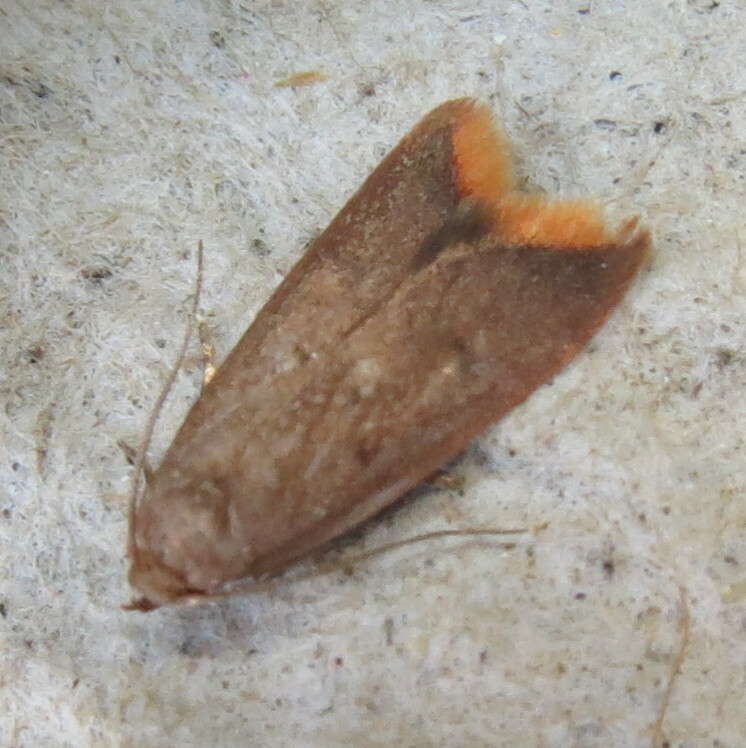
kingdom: Animalia
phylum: Arthropoda
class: Insecta
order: Lepidoptera
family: Oecophoridae
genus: Tachystola
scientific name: Tachystola acroxantha
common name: Ruddy streak
